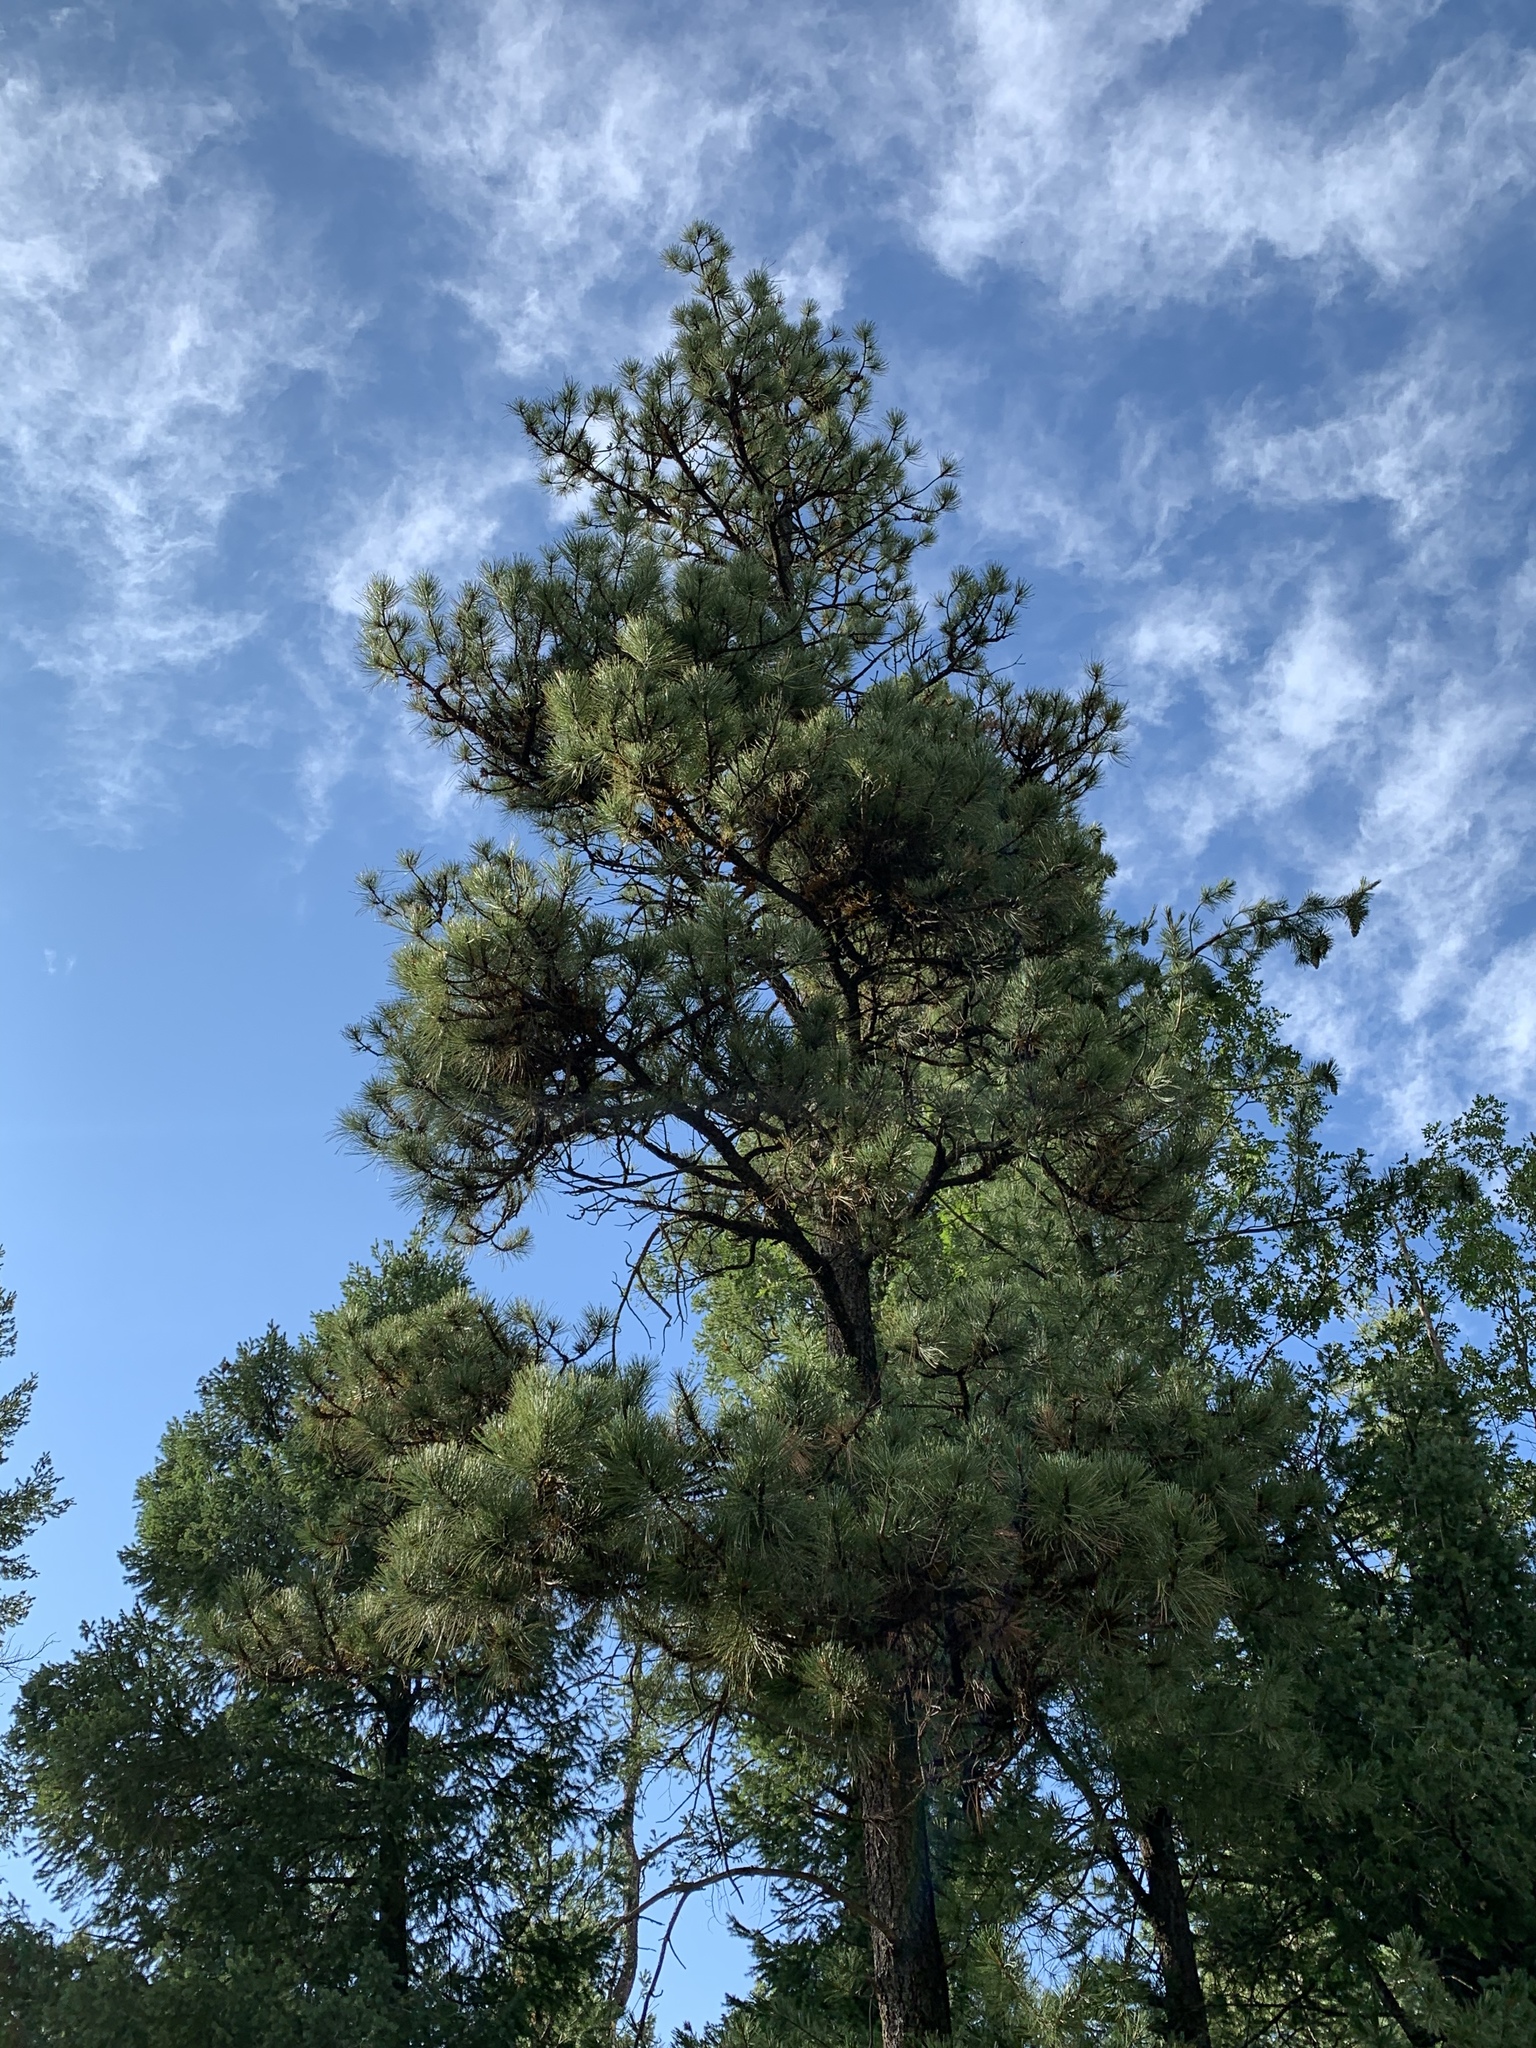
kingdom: Plantae
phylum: Tracheophyta
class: Pinopsida
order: Pinales
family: Pinaceae
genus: Pinus
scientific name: Pinus ponderosa
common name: Western yellow-pine
